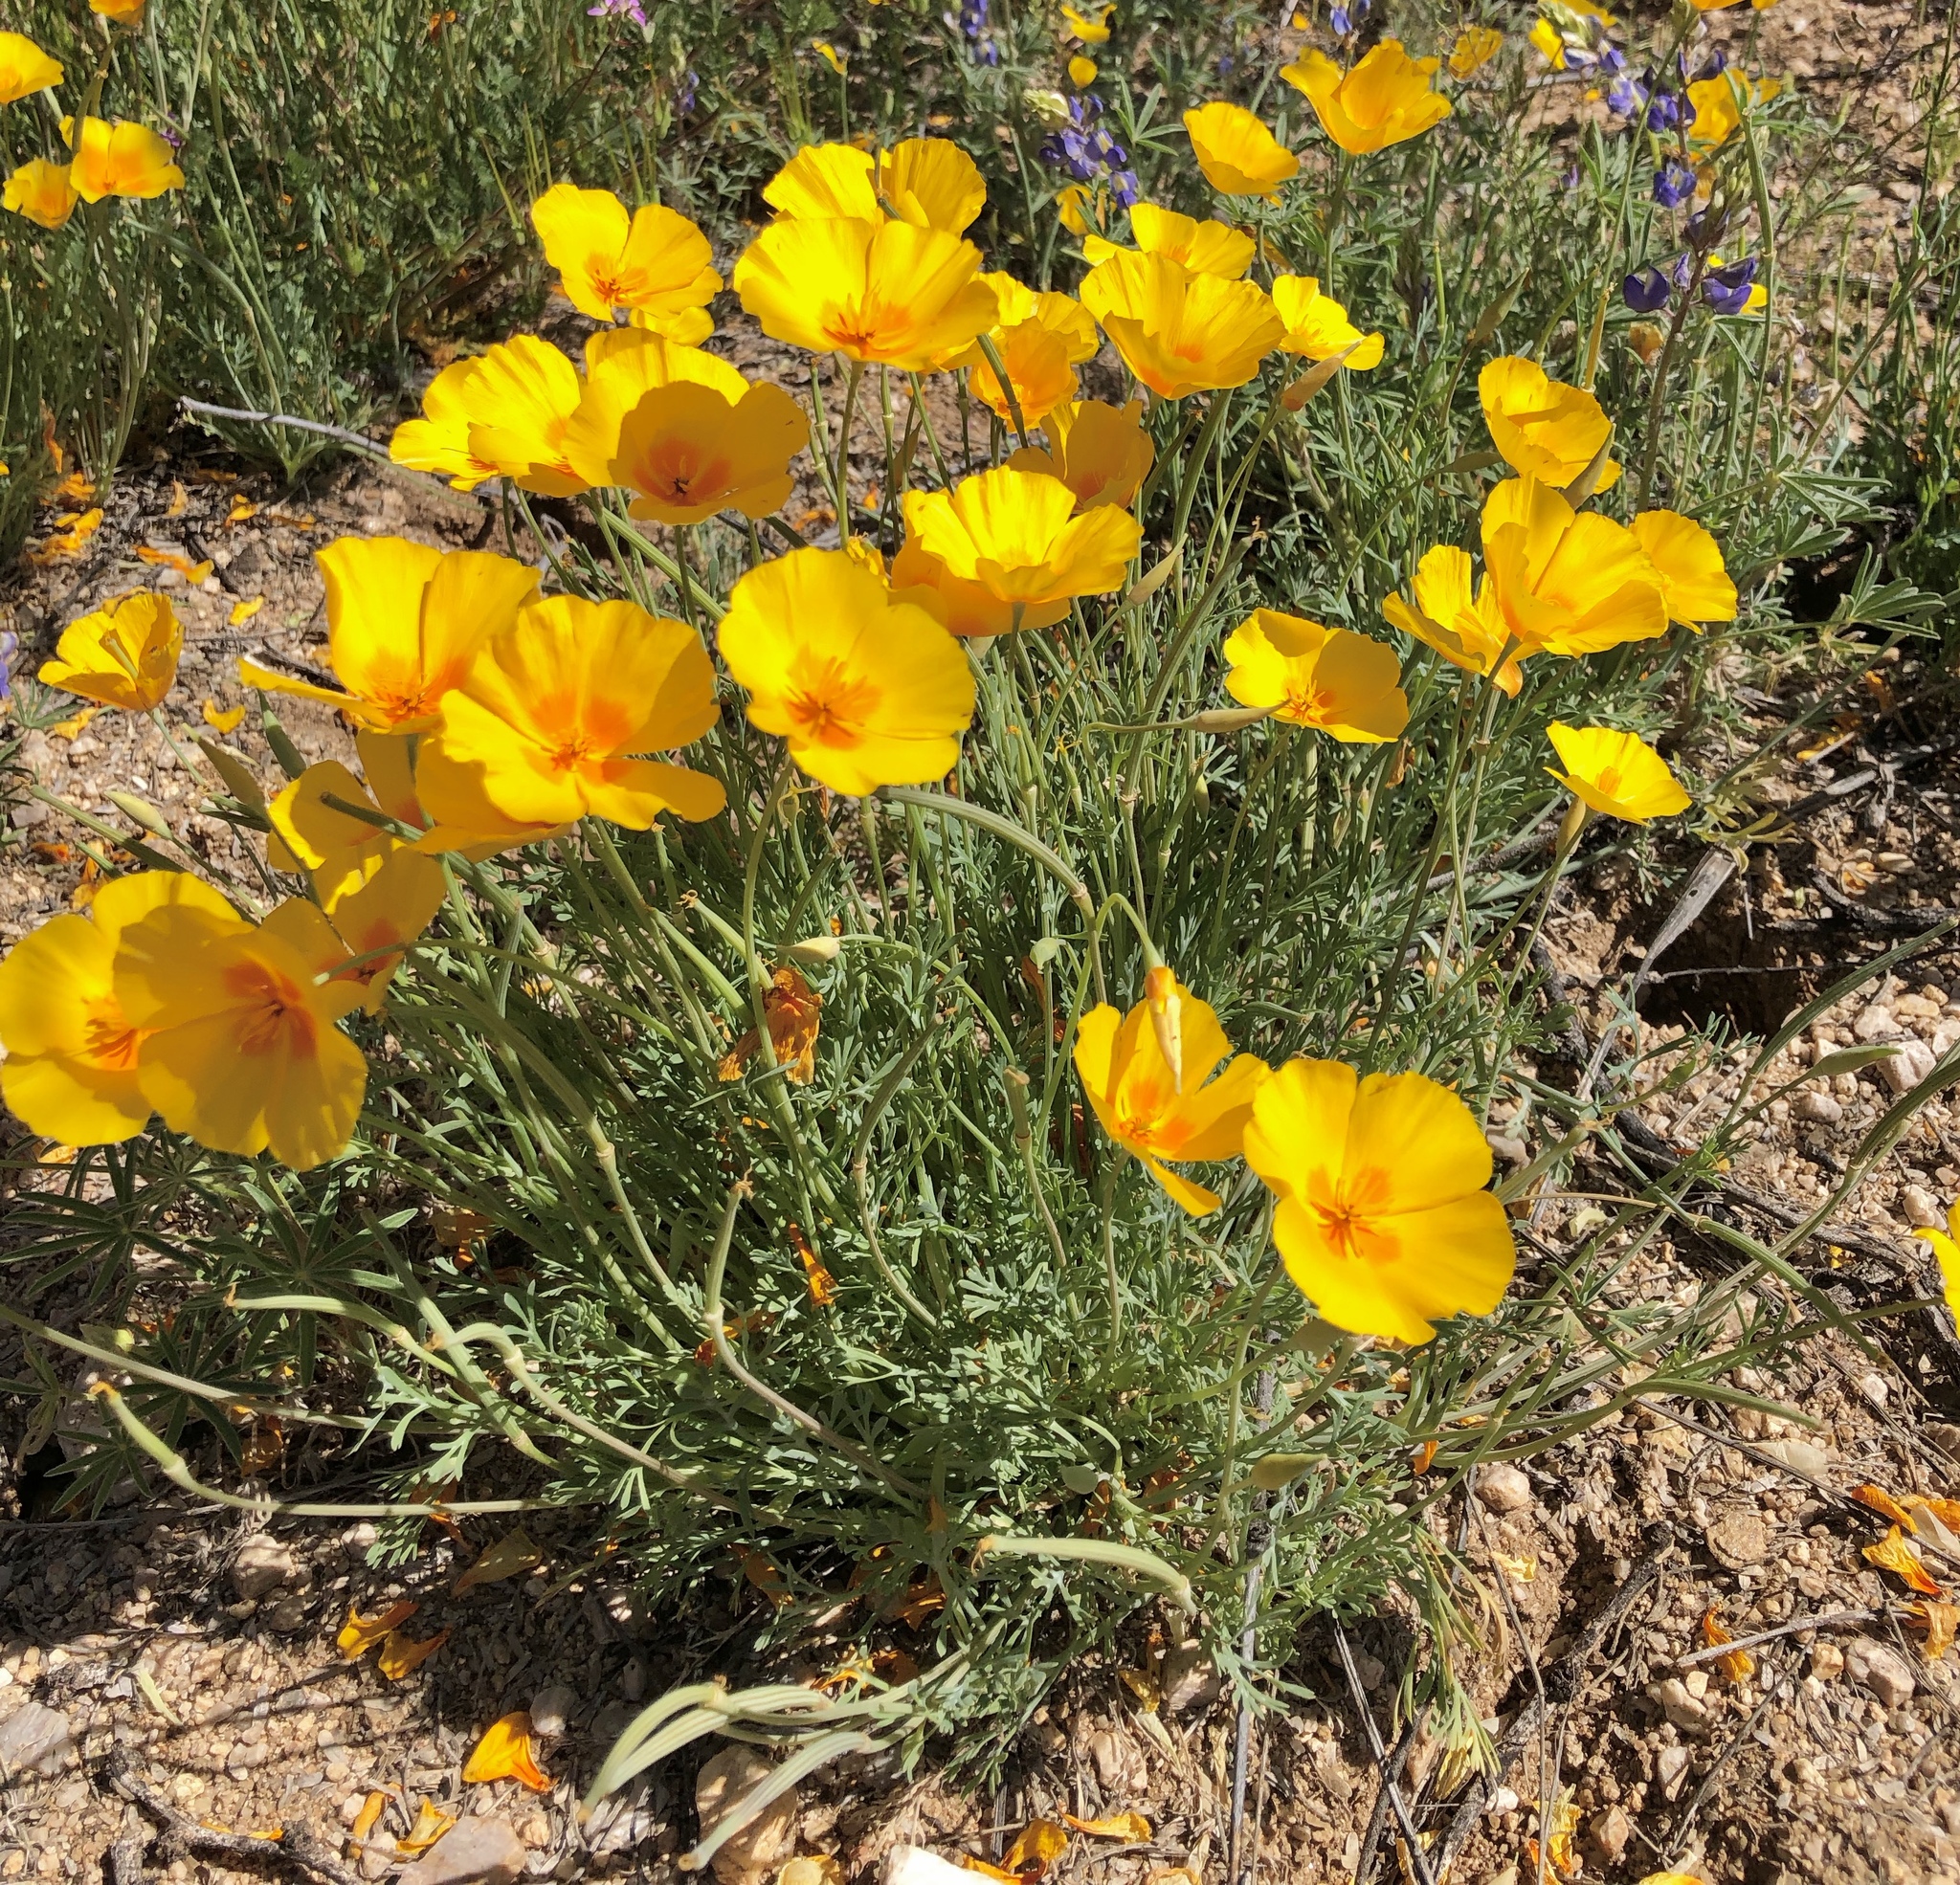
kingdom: Plantae
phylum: Tracheophyta
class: Magnoliopsida
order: Ranunculales
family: Papaveraceae
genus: Eschscholzia
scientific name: Eschscholzia californica
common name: California poppy
